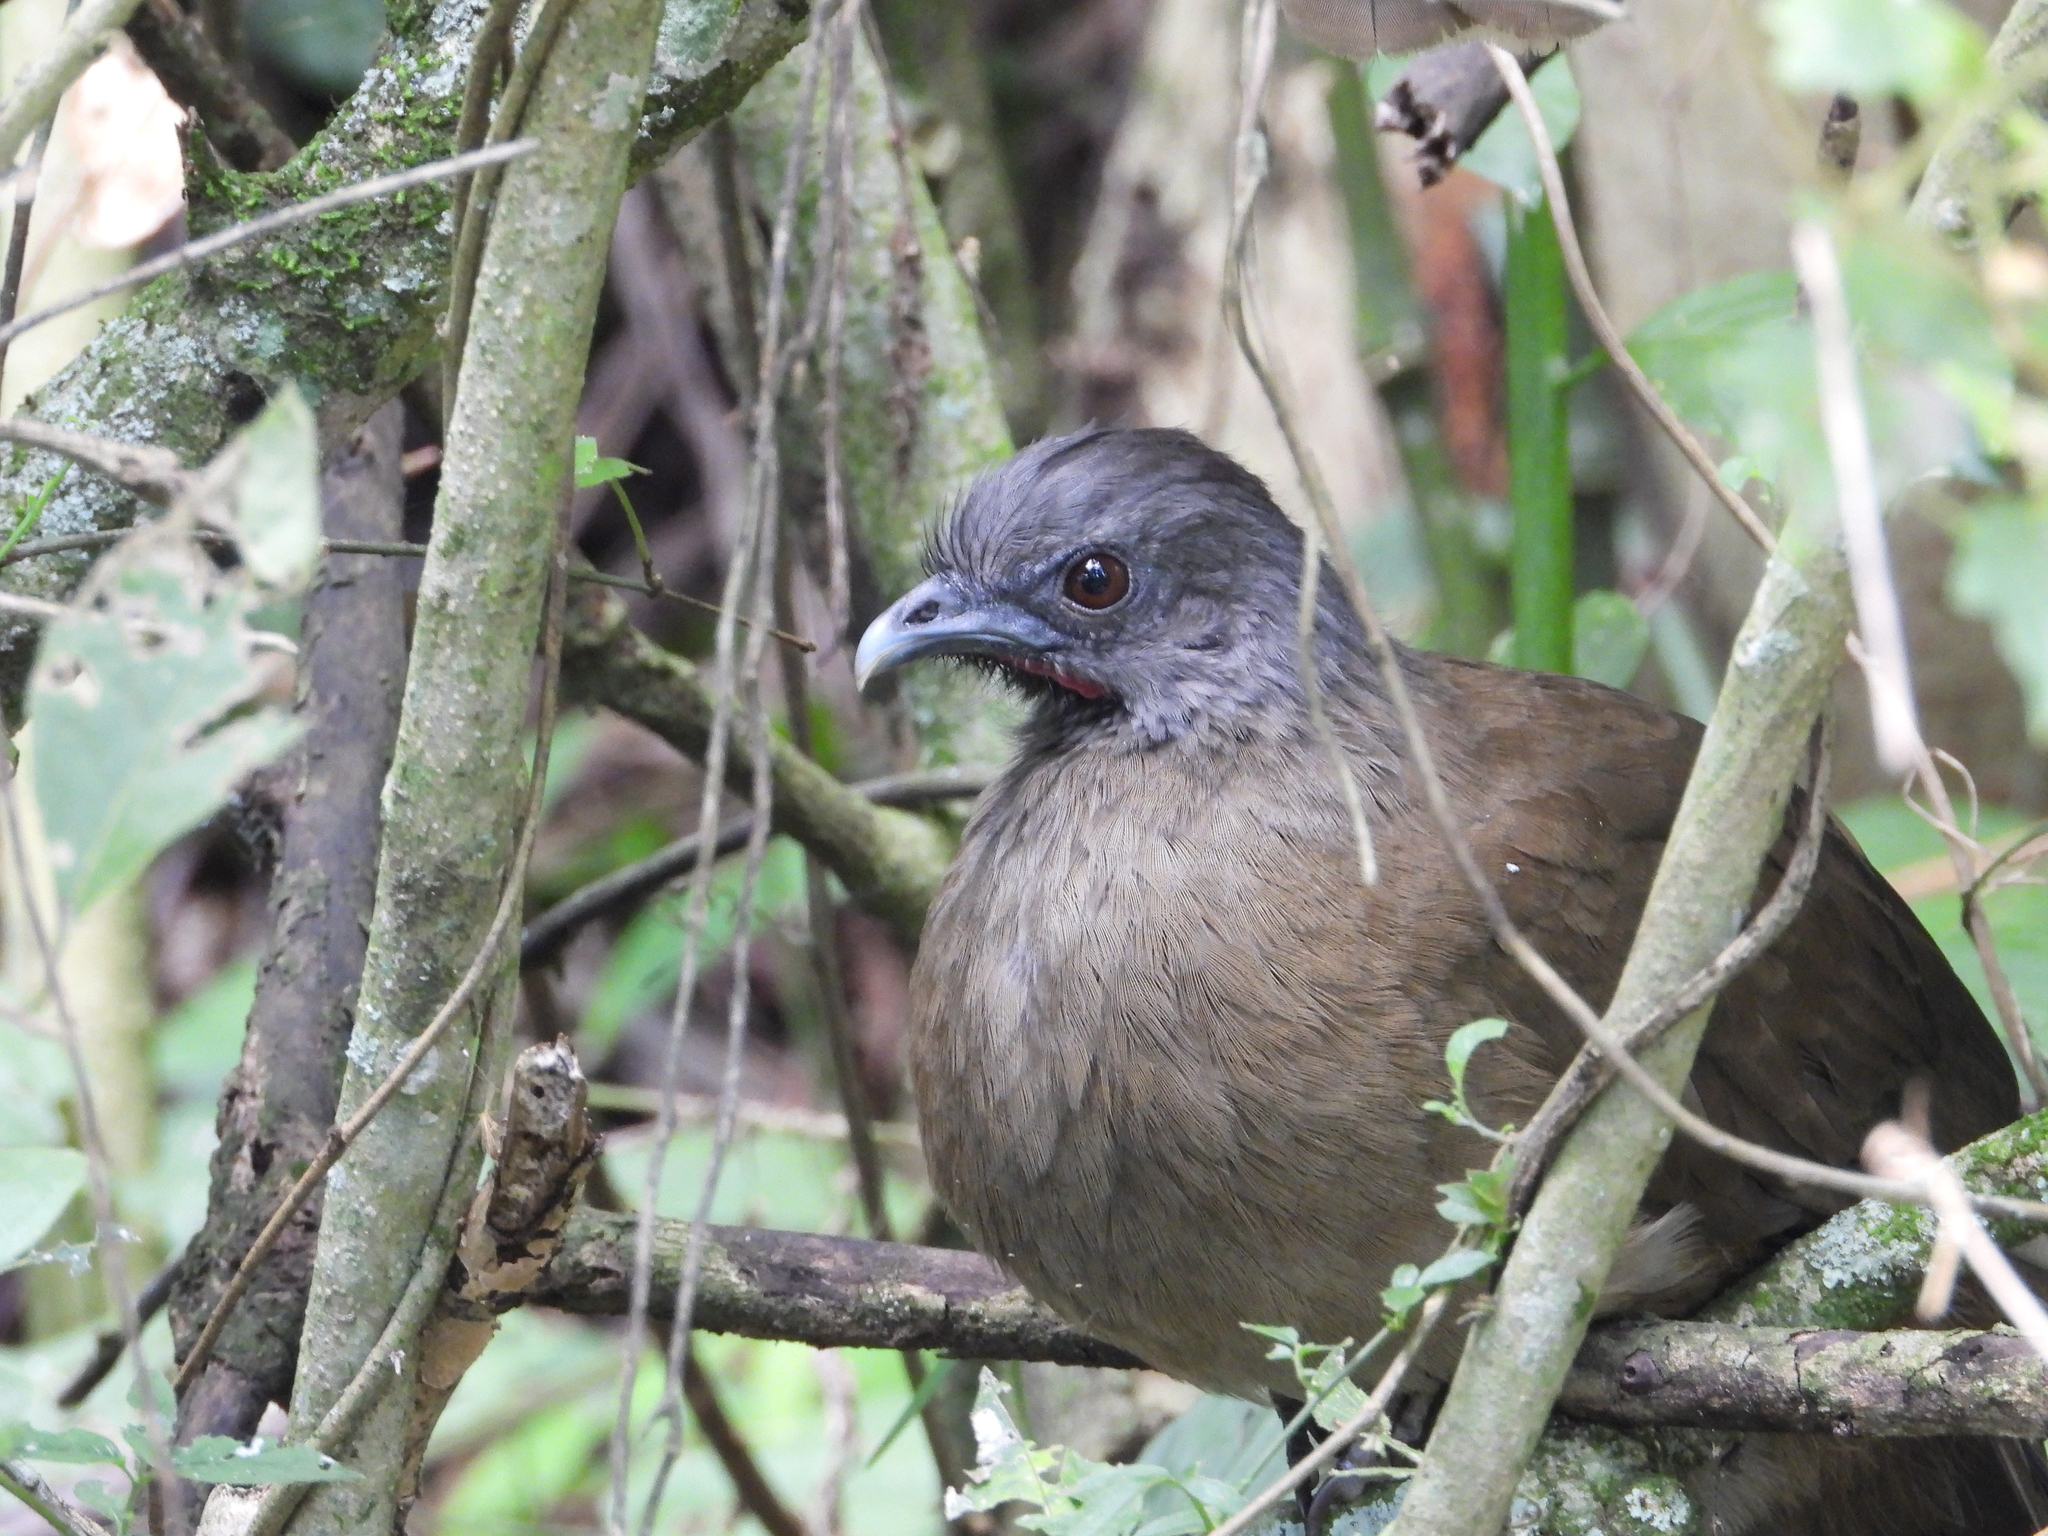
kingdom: Animalia
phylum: Chordata
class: Aves
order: Galliformes
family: Cracidae
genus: Ortalis
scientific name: Ortalis vetula
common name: Plain chachalaca
